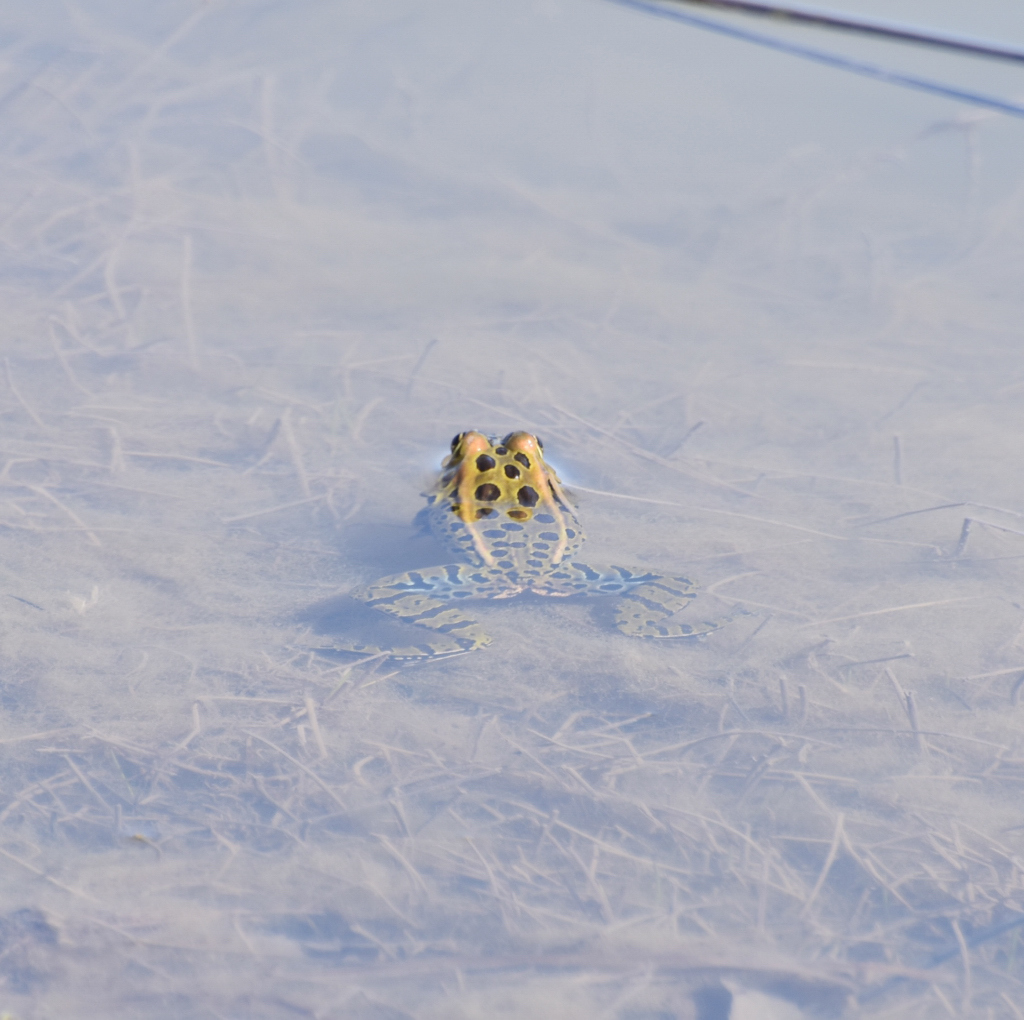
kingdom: Animalia
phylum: Chordata
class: Amphibia
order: Anura
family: Ranidae
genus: Lithobates
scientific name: Lithobates pipiens
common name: Northern leopard frog
